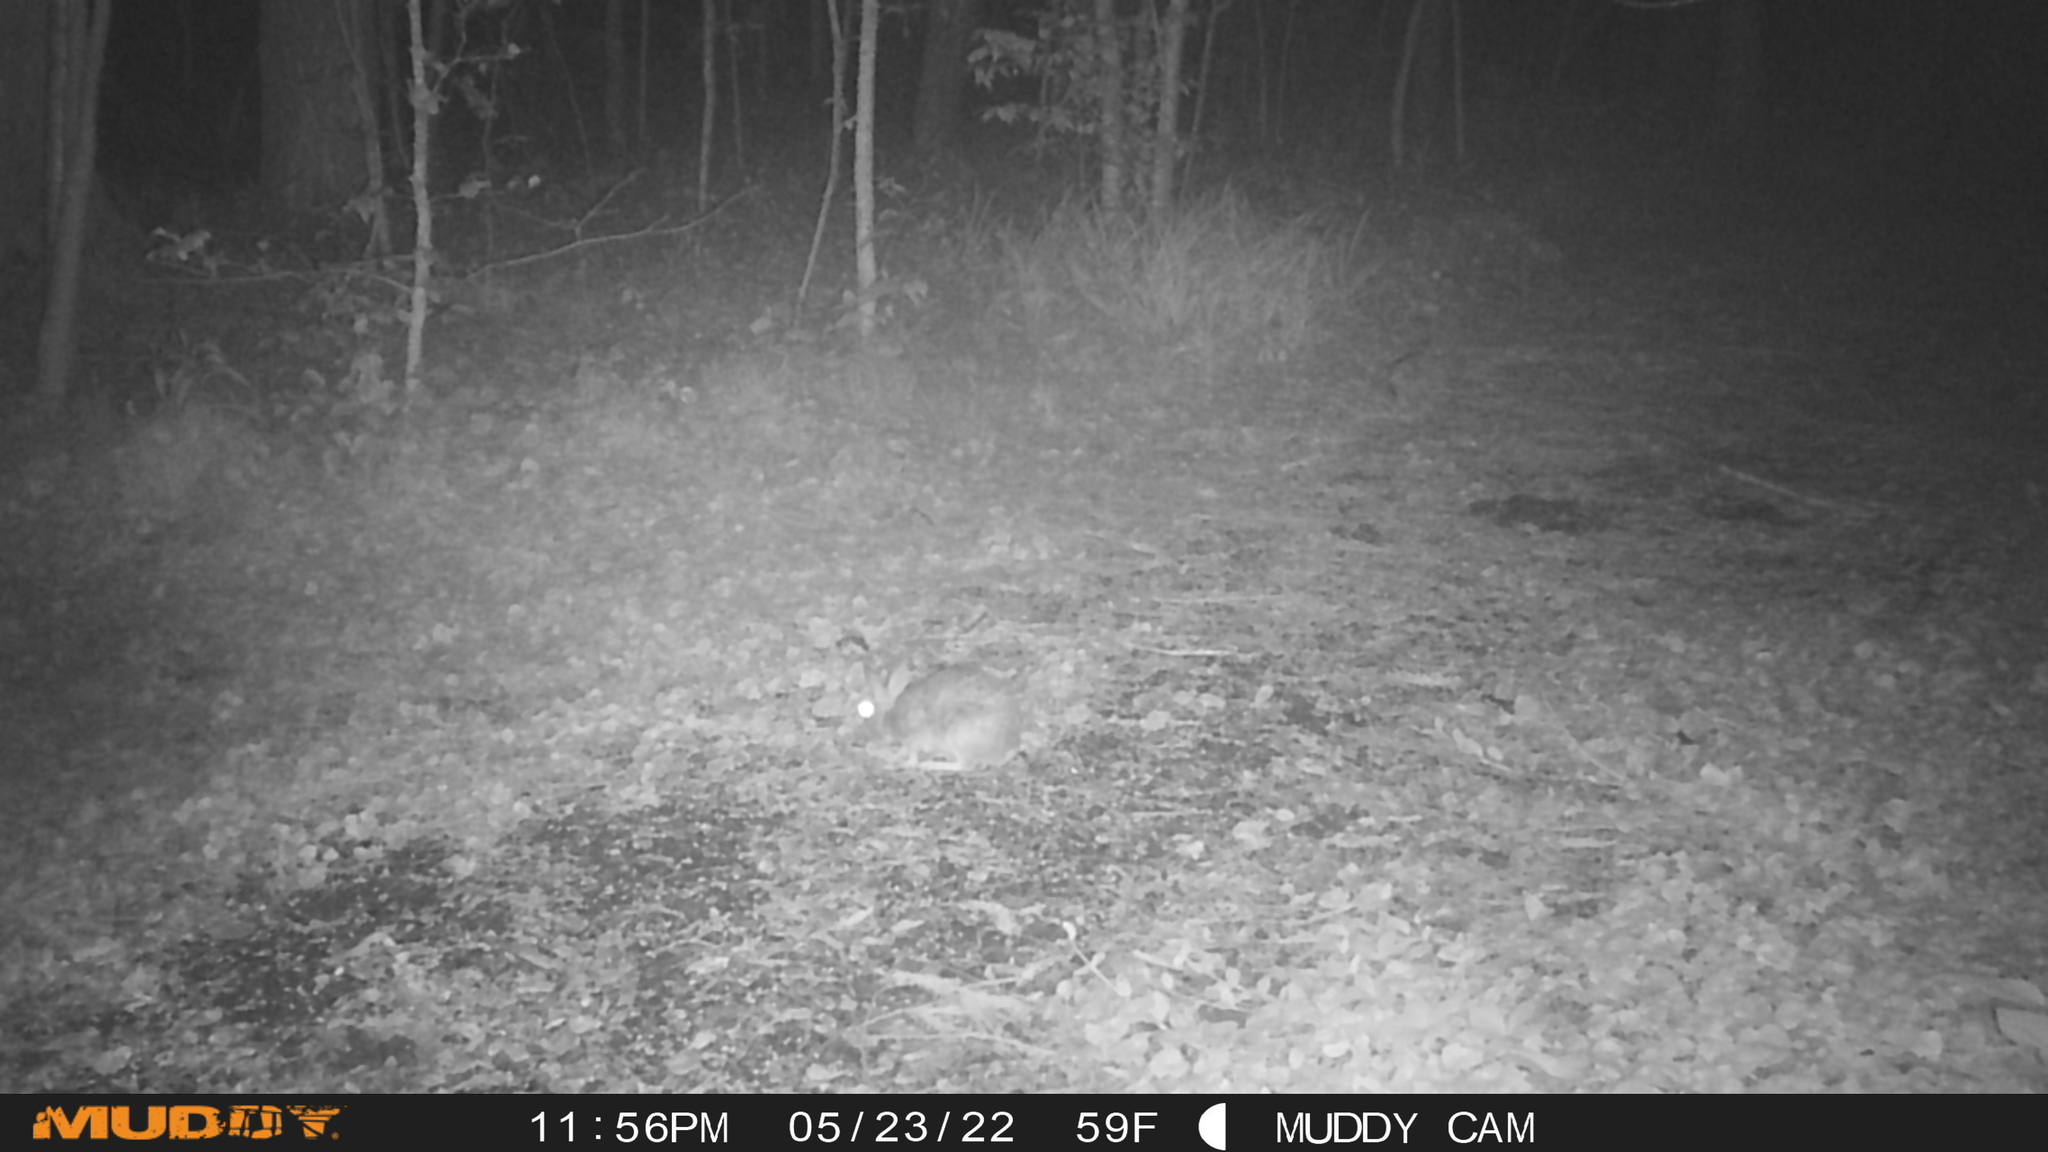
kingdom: Animalia
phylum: Chordata
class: Mammalia
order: Lagomorpha
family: Leporidae
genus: Sylvilagus
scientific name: Sylvilagus floridanus
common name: Eastern cottontail
